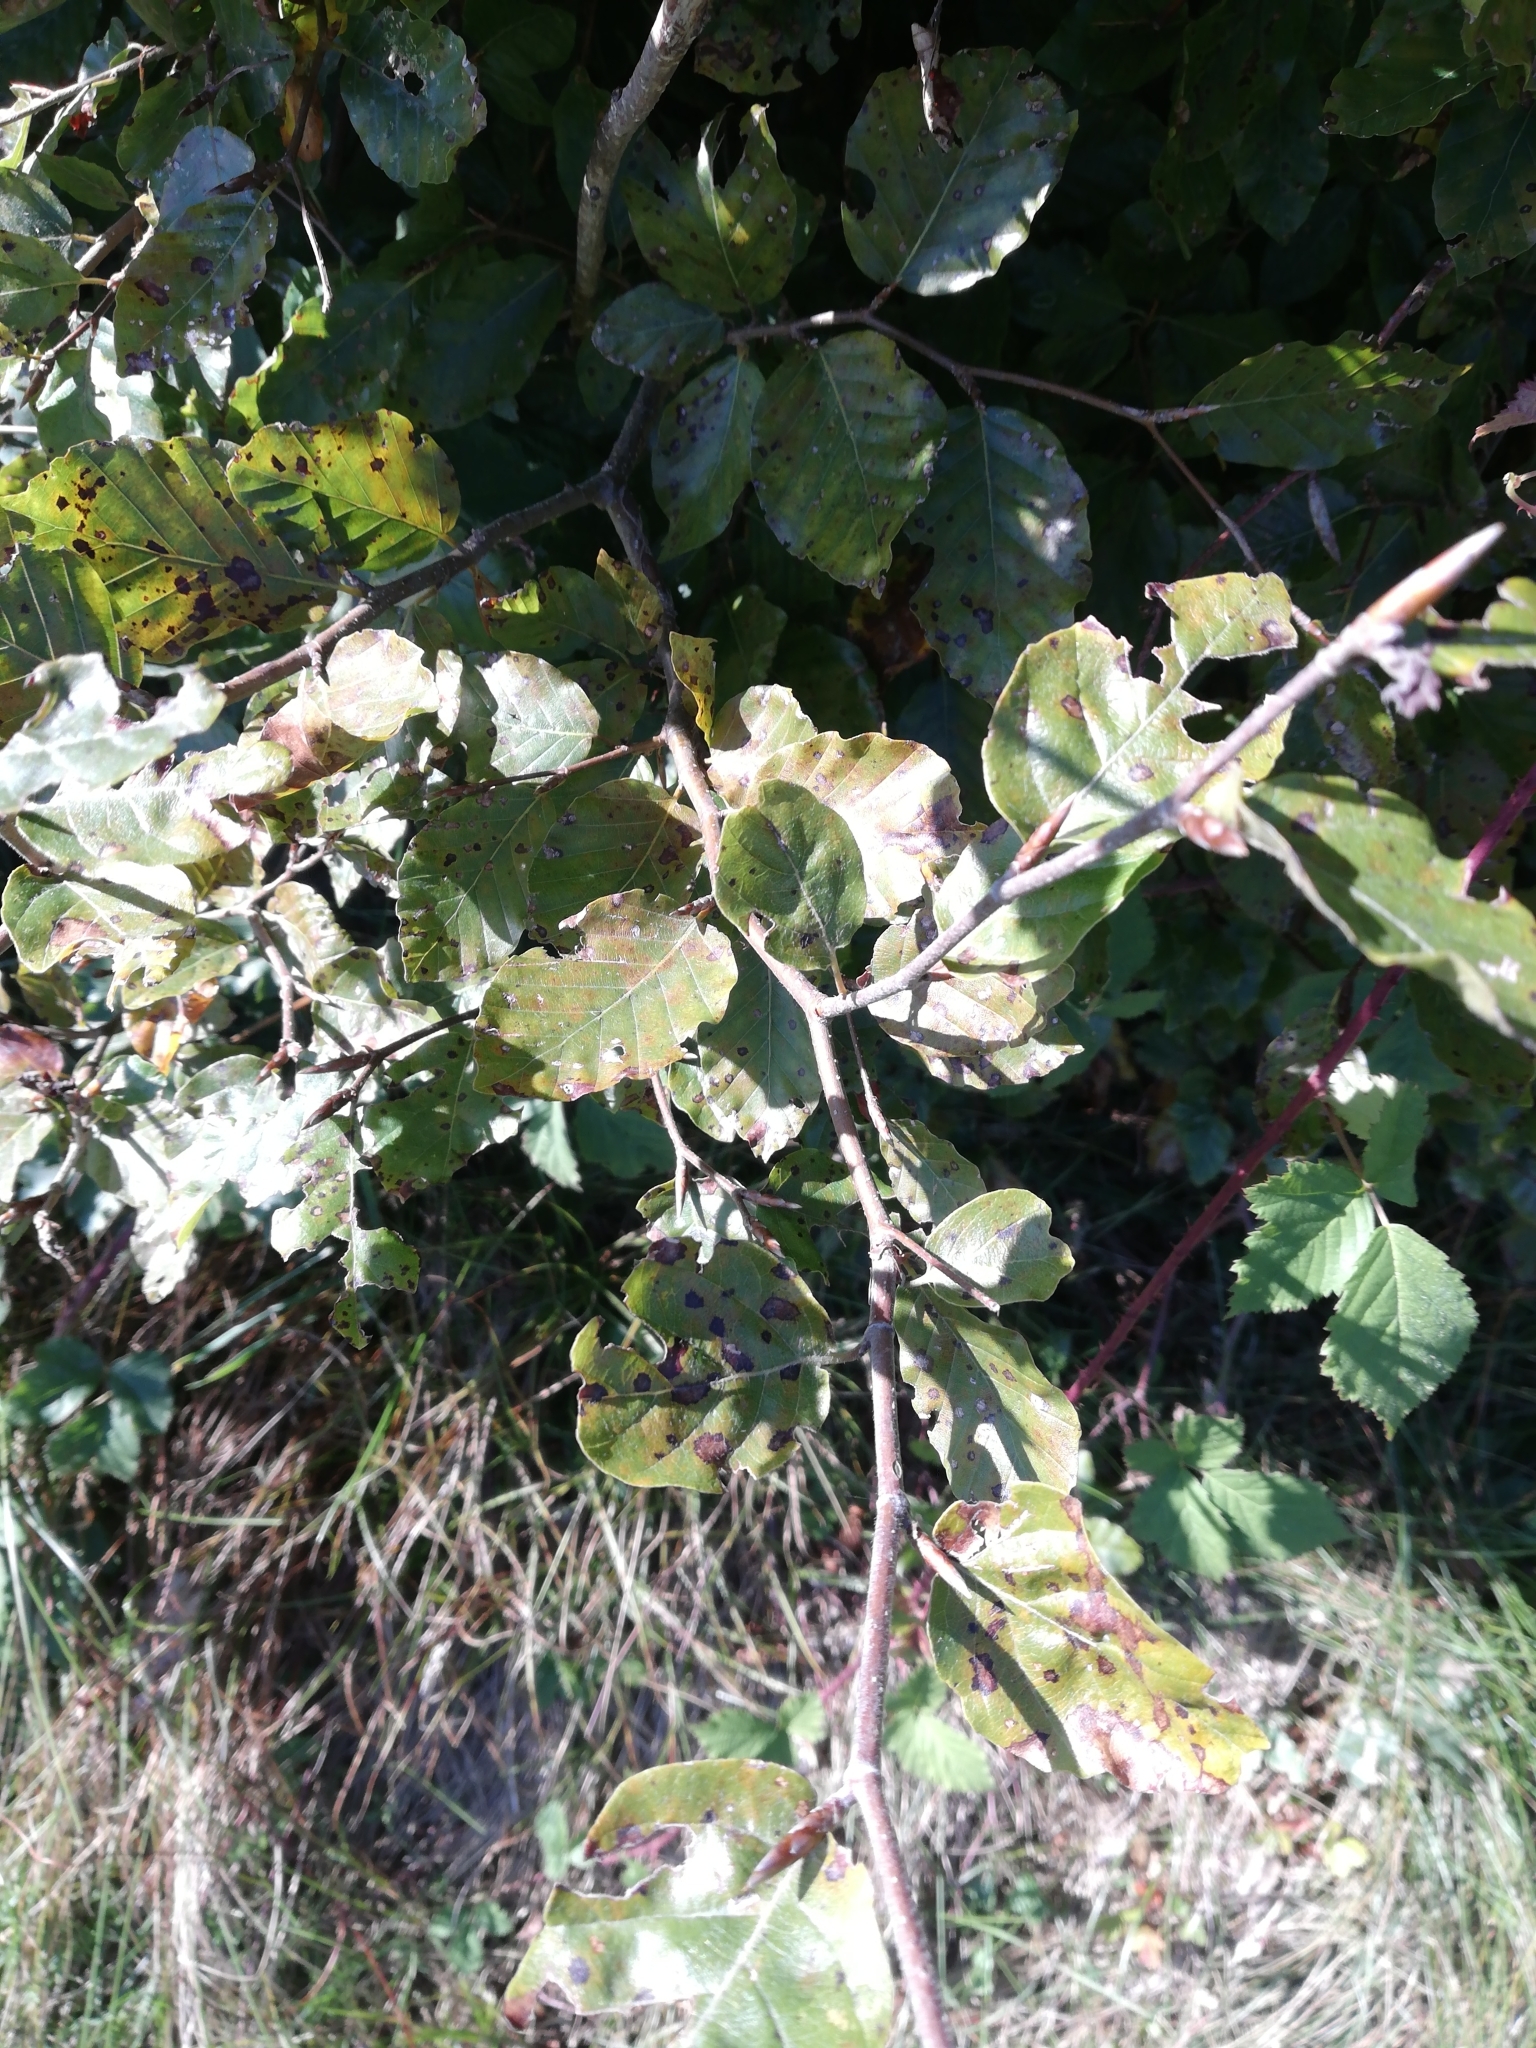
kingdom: Plantae
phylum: Tracheophyta
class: Magnoliopsida
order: Fagales
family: Fagaceae
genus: Fagus
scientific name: Fagus sylvatica
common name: Beech
